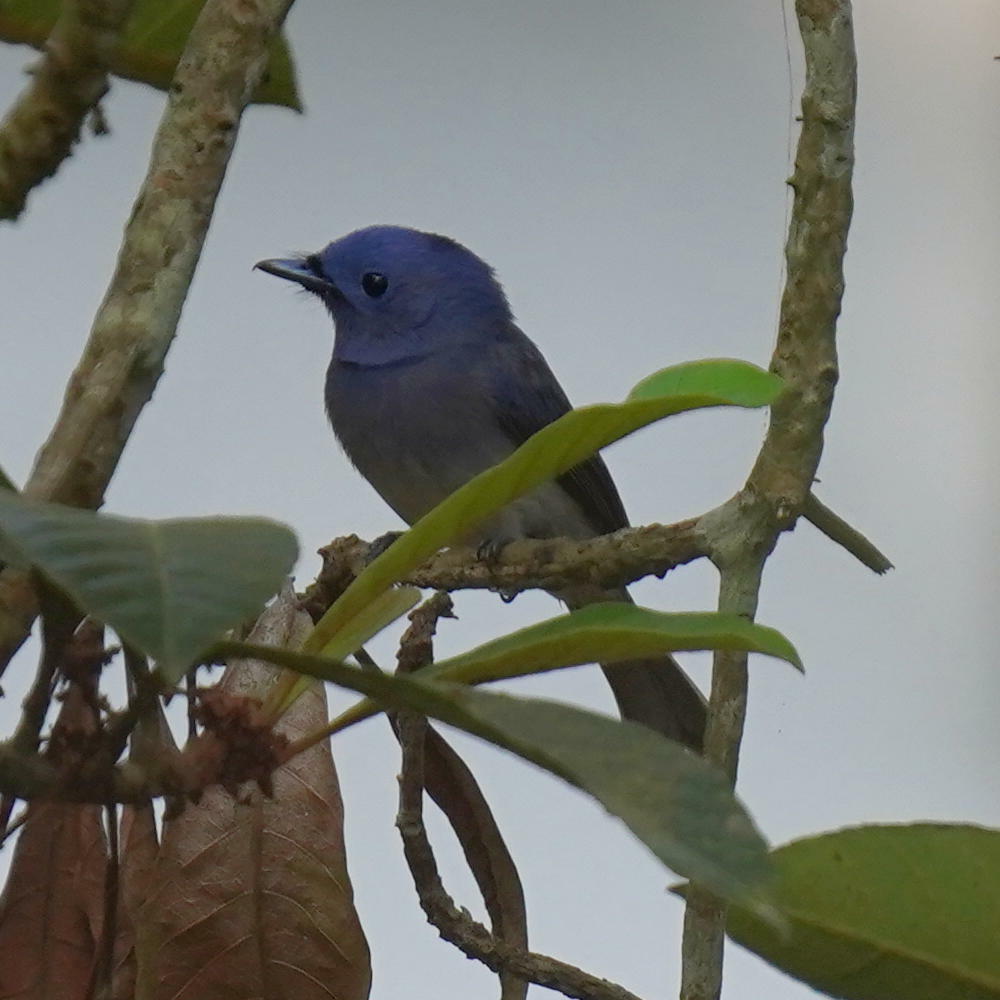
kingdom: Animalia
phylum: Chordata
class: Aves
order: Passeriformes
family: Monarchidae
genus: Hypothymis
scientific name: Hypothymis azurea
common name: Black-naped monarch
